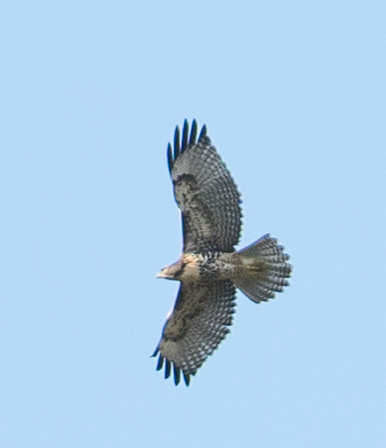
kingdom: Animalia
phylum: Chordata
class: Aves
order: Accipitriformes
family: Accipitridae
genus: Buteo
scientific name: Buteo jamaicensis
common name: Red-tailed hawk
